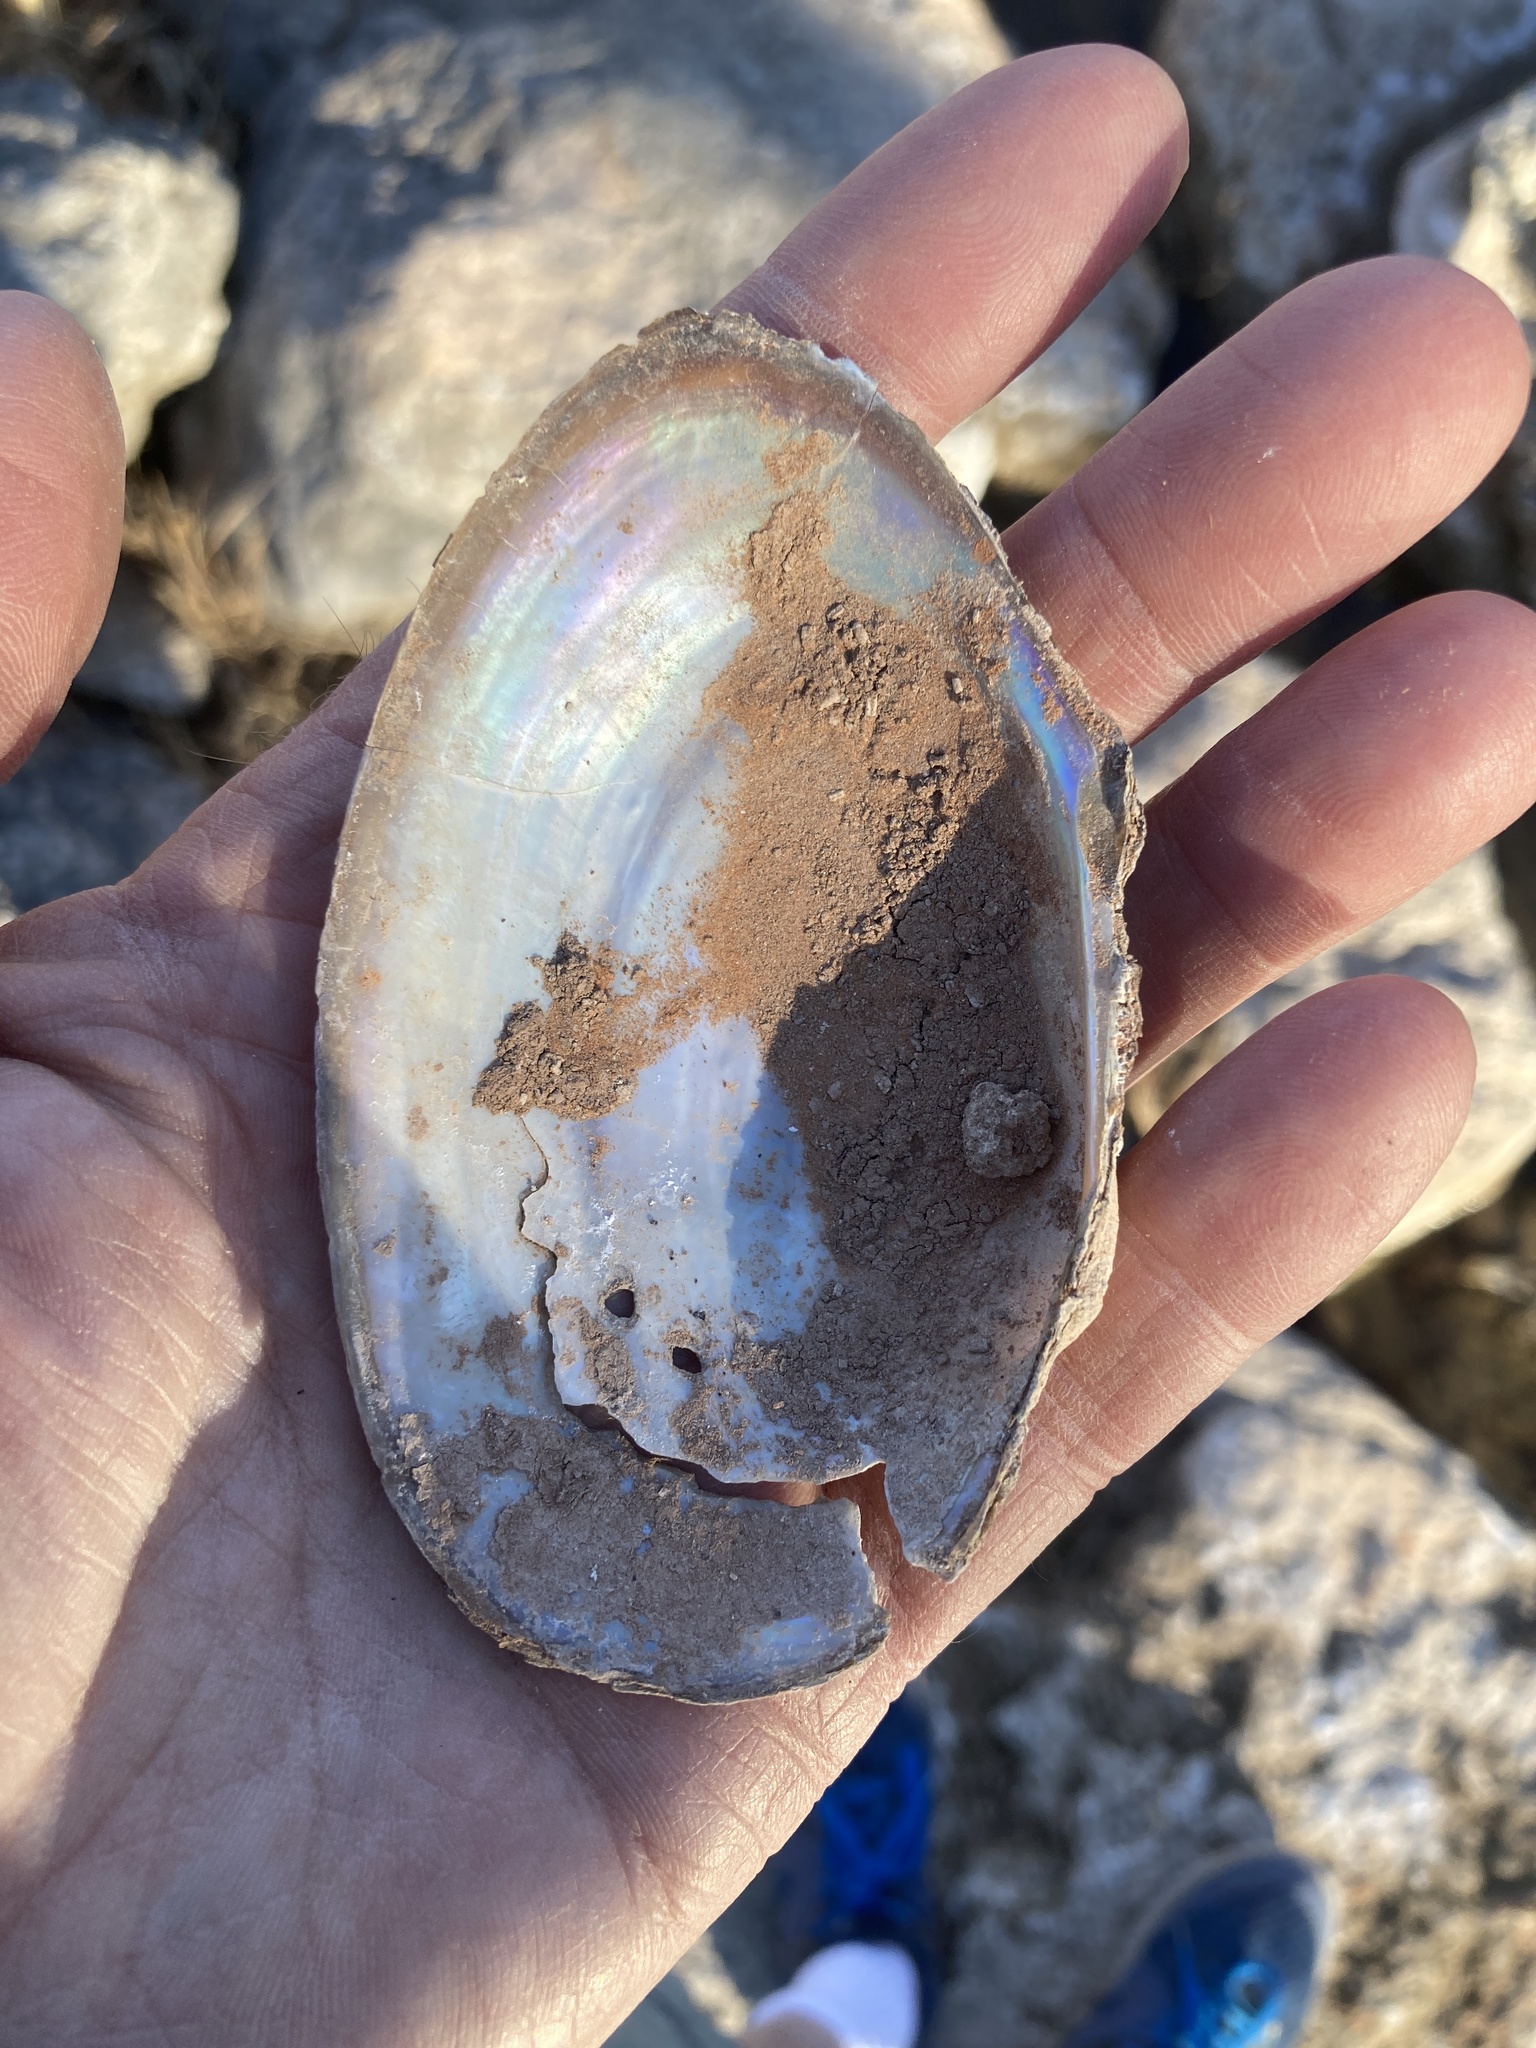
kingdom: Animalia
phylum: Mollusca
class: Bivalvia
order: Unionida
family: Unionidae
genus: Pyganodon
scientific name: Pyganodon grandis
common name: Giant floater
